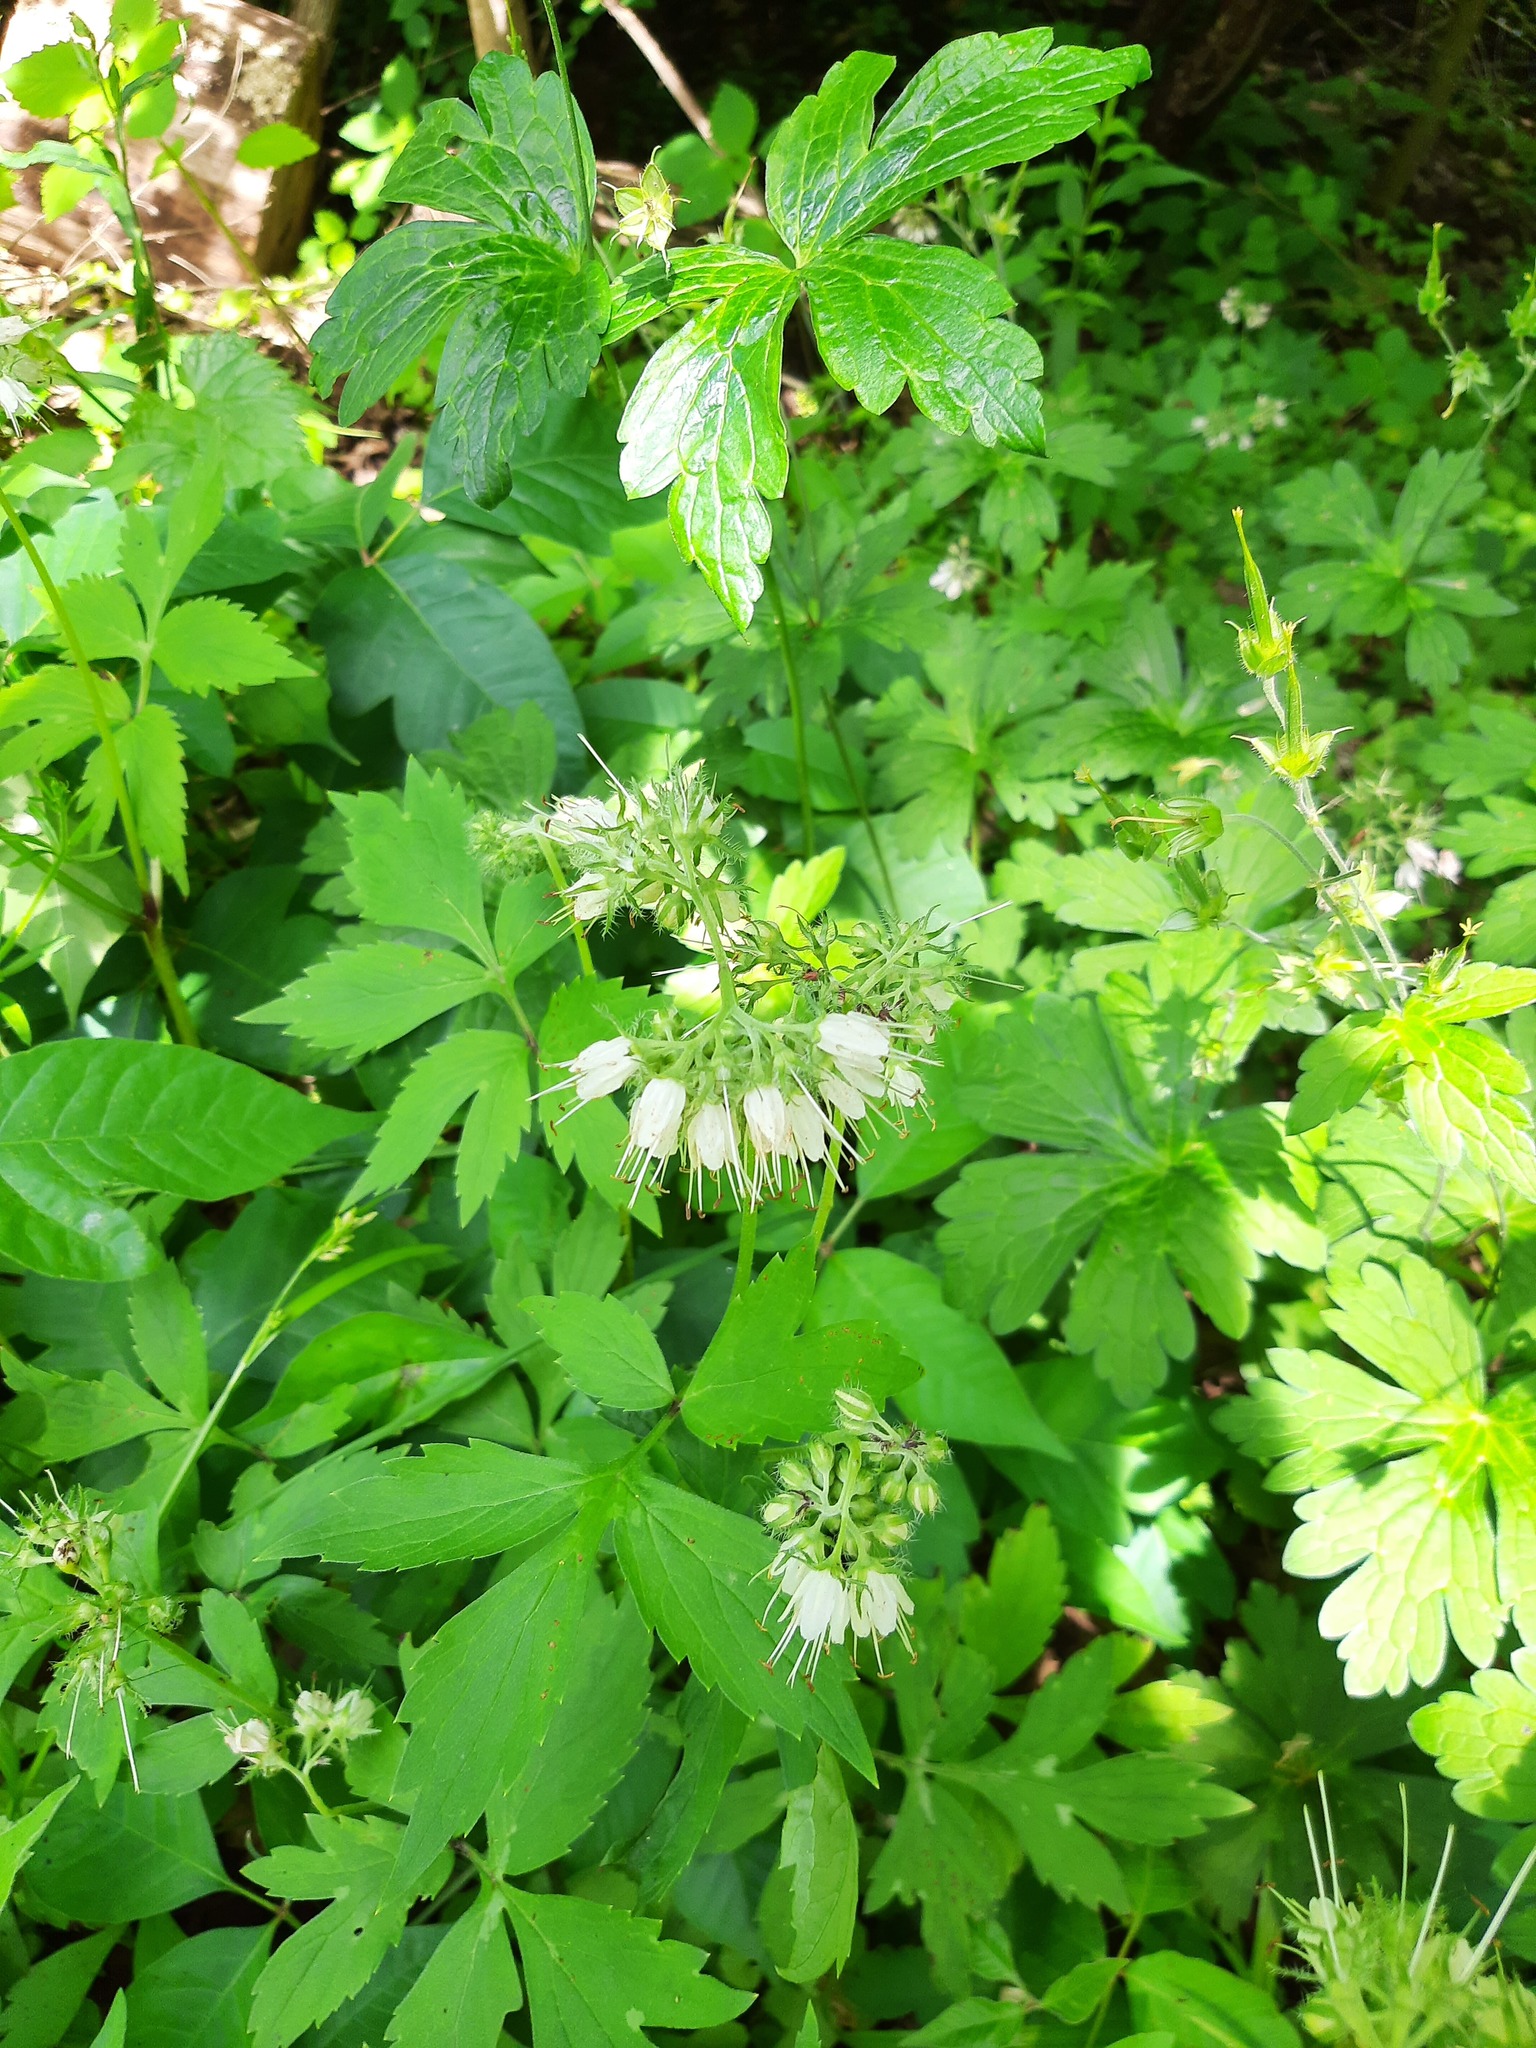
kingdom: Plantae
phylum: Tracheophyta
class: Magnoliopsida
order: Boraginales
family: Hydrophyllaceae
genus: Hydrophyllum
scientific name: Hydrophyllum virginianum
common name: Virginia waterleaf
